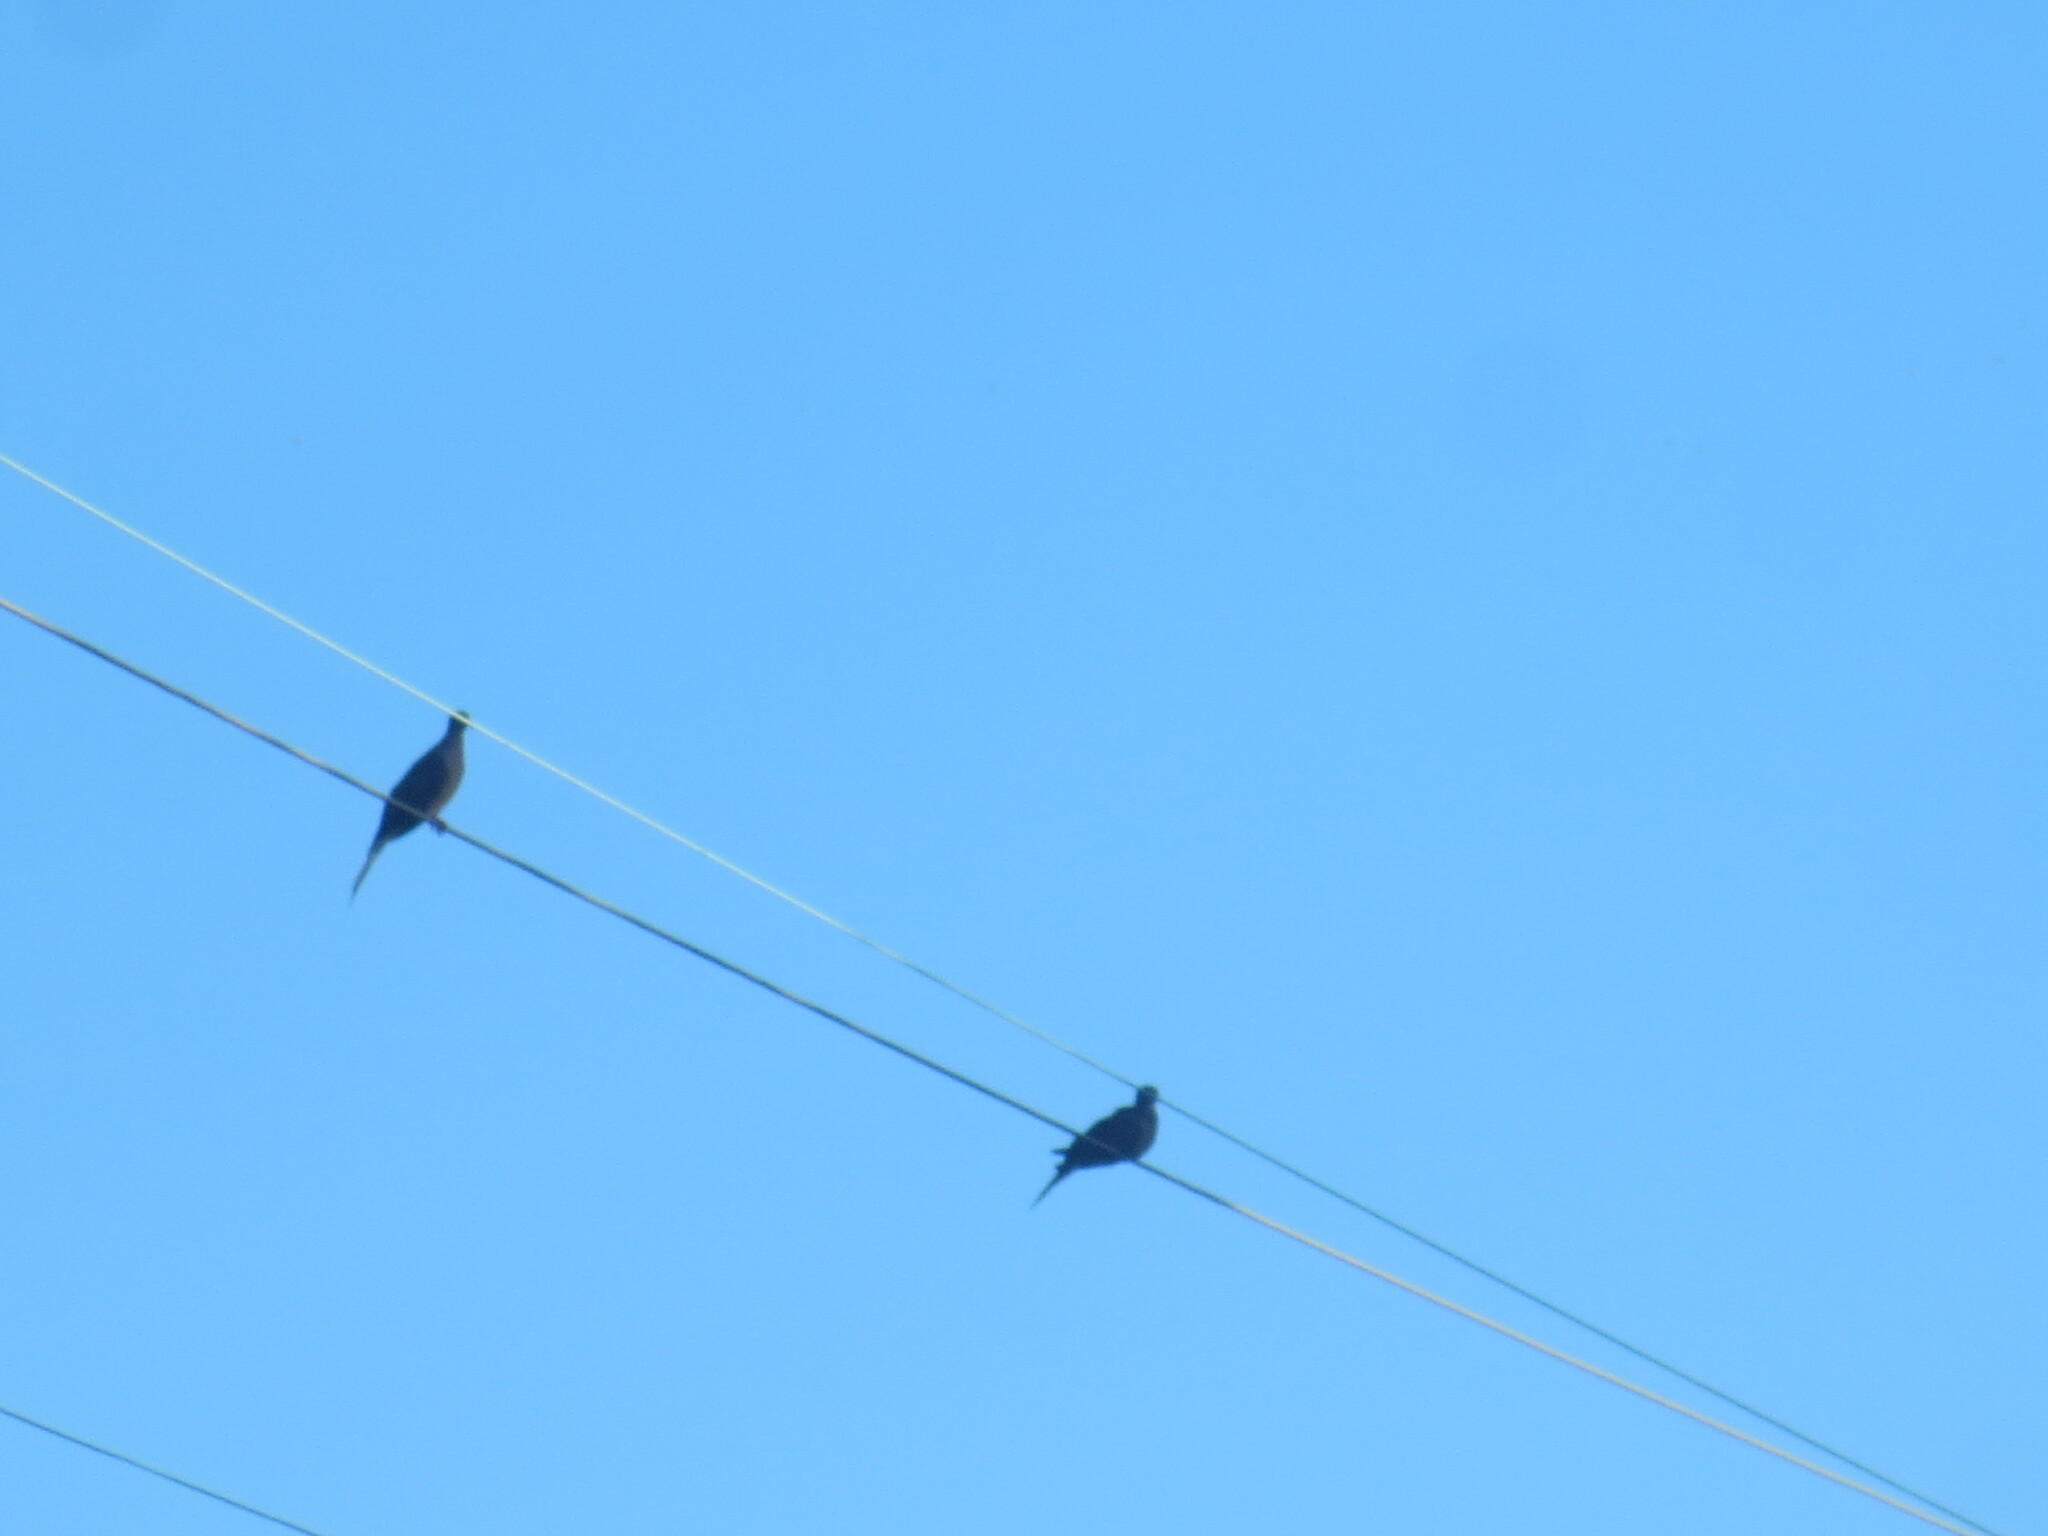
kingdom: Animalia
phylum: Chordata
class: Aves
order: Columbiformes
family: Columbidae
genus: Zenaida
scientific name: Zenaida macroura
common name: Mourning dove
